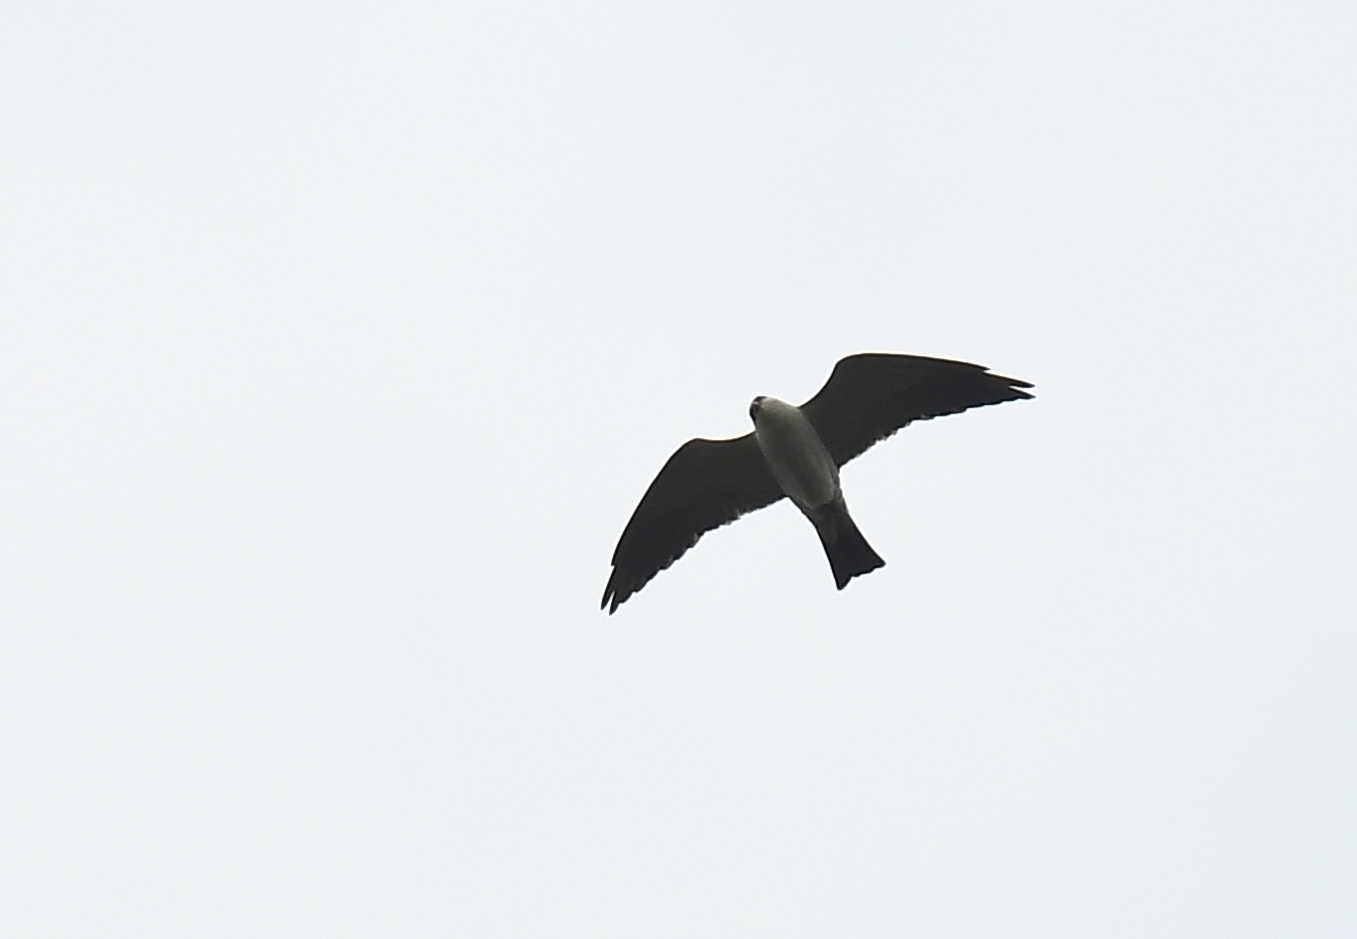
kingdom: Animalia
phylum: Chordata
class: Aves
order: Accipitriformes
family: Accipitridae
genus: Ictinia
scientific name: Ictinia mississippiensis
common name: Mississippi kite
